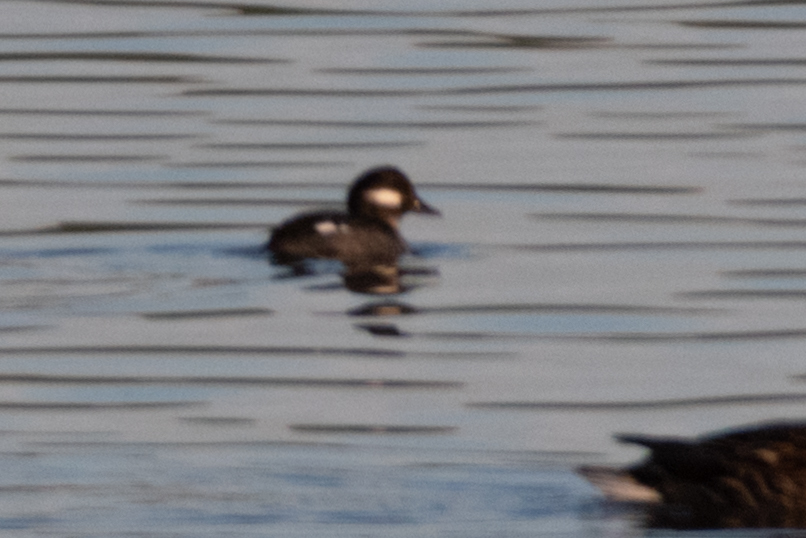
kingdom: Animalia
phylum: Chordata
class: Aves
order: Anseriformes
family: Anatidae
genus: Bucephala
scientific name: Bucephala albeola
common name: Bufflehead
